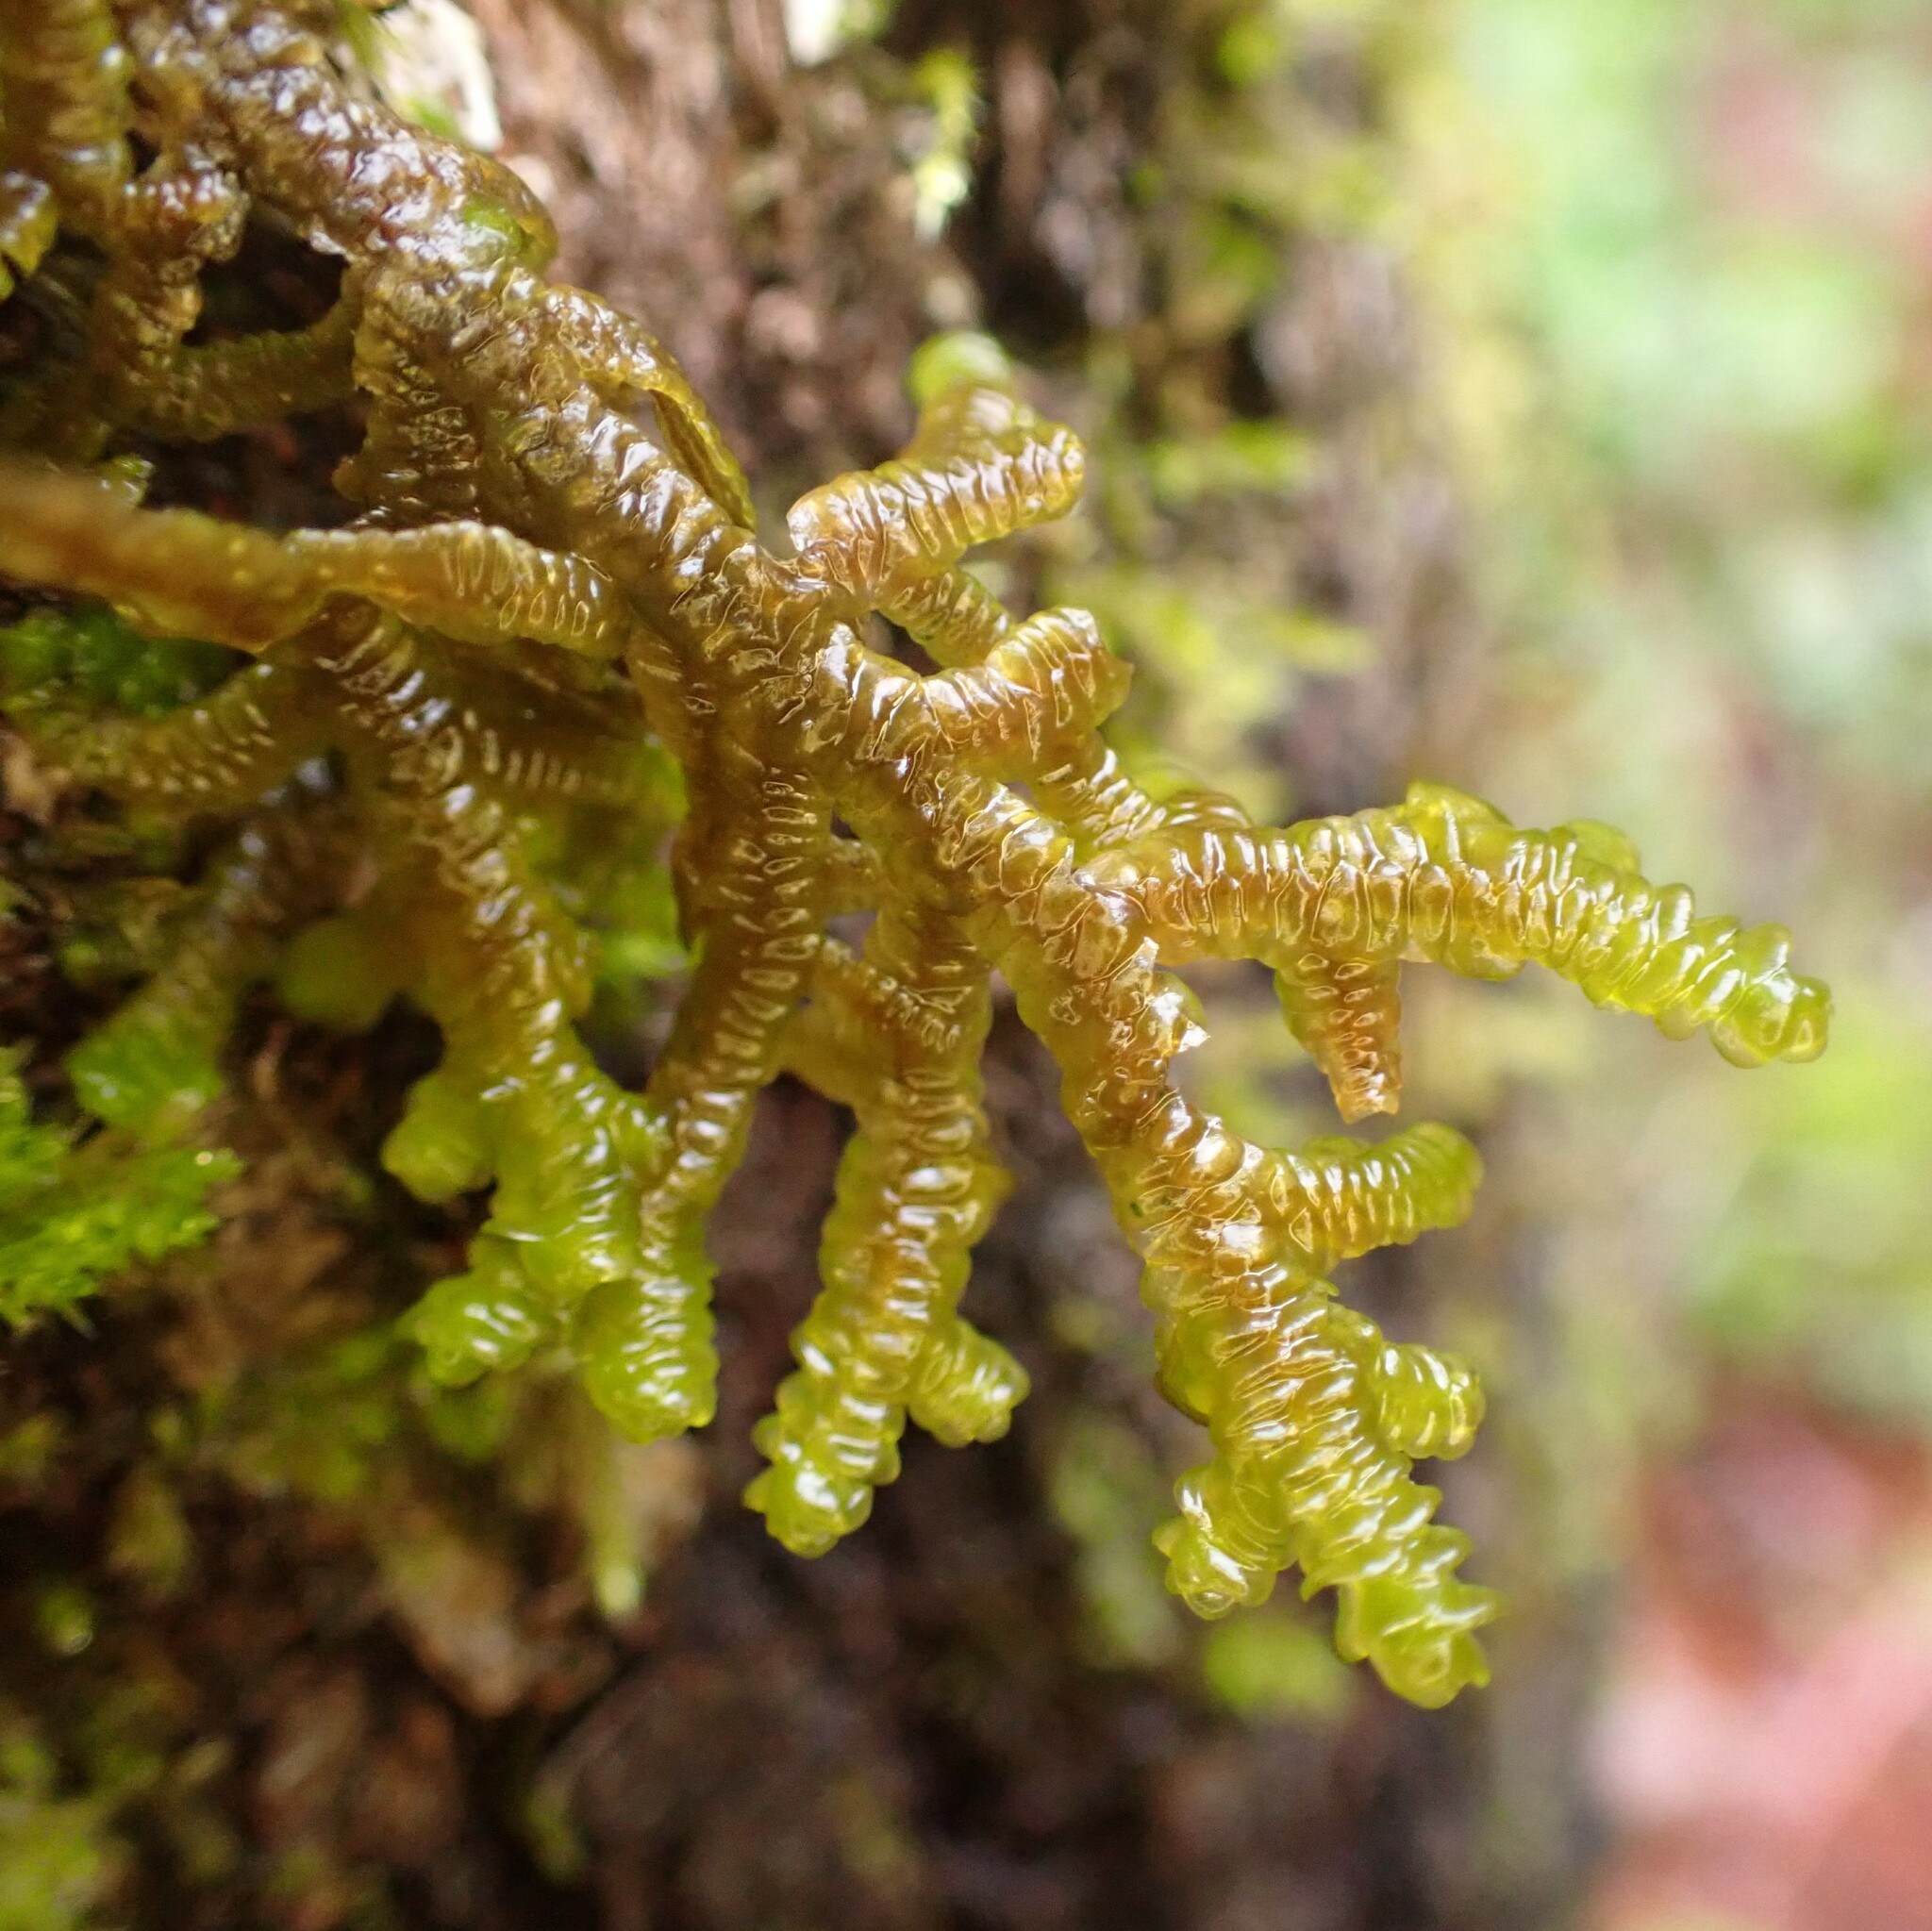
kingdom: Plantae
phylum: Marchantiophyta
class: Jungermanniopsida
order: Porellales
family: Porellaceae
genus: Porella
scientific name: Porella navicularis
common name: Tree ruffle liverwort
